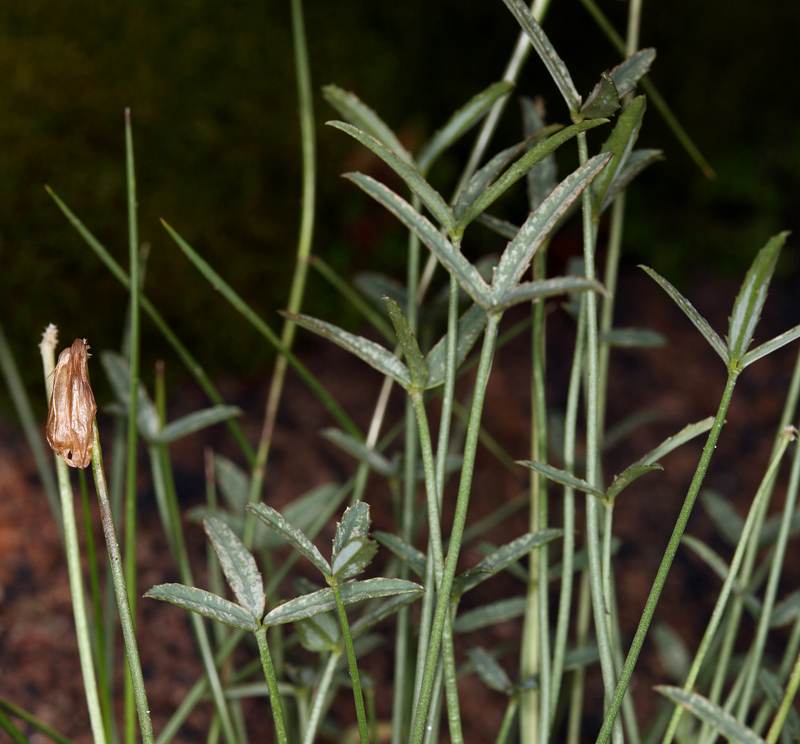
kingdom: Plantae
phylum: Tracheophyta
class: Magnoliopsida
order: Fabales
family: Fabaceae
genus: Trifolium
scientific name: Trifolium dedeckerae
